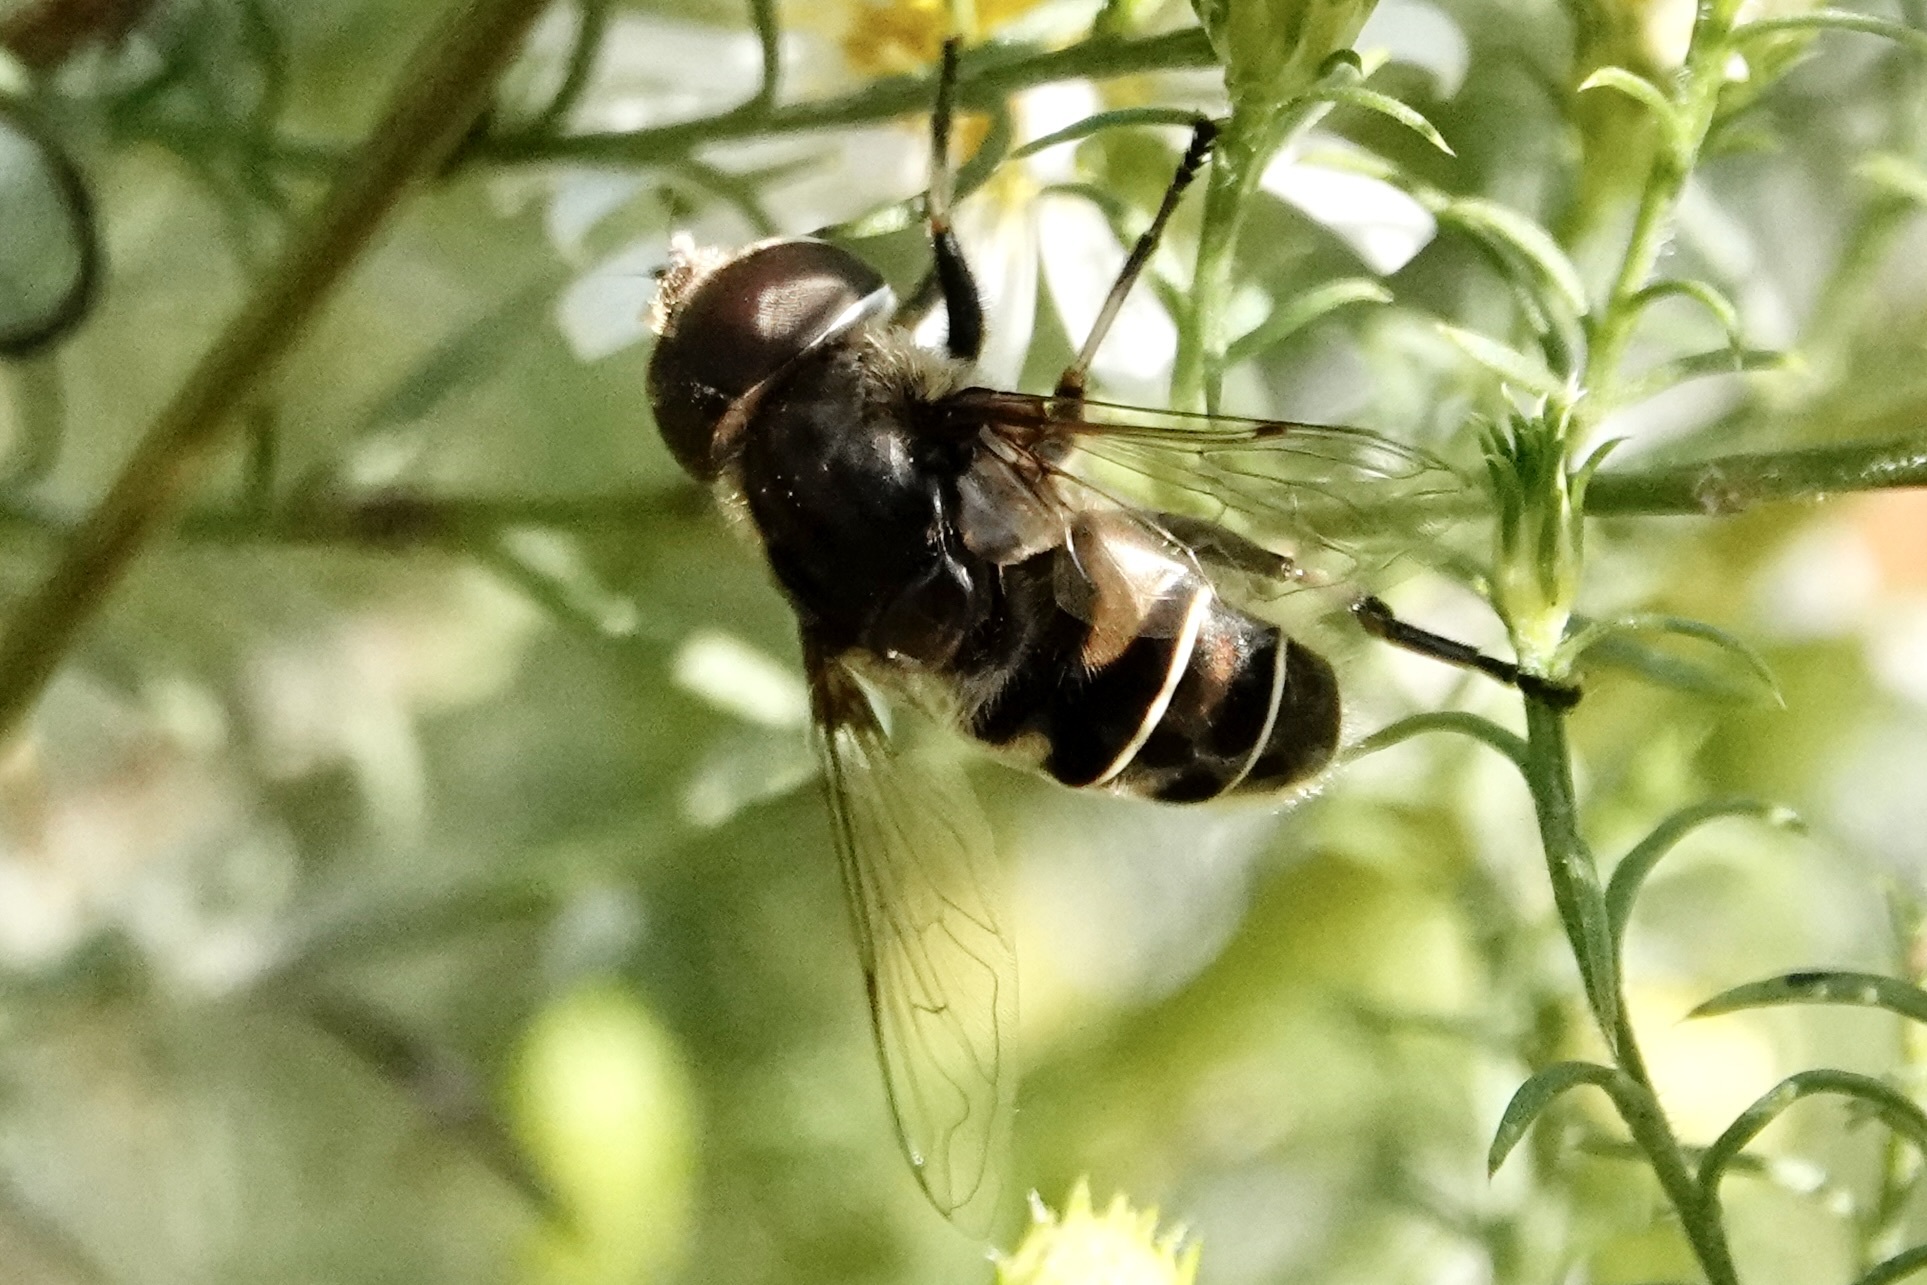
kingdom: Animalia
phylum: Arthropoda
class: Insecta
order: Diptera
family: Syrphidae
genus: Eristalis
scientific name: Eristalis dimidiata
